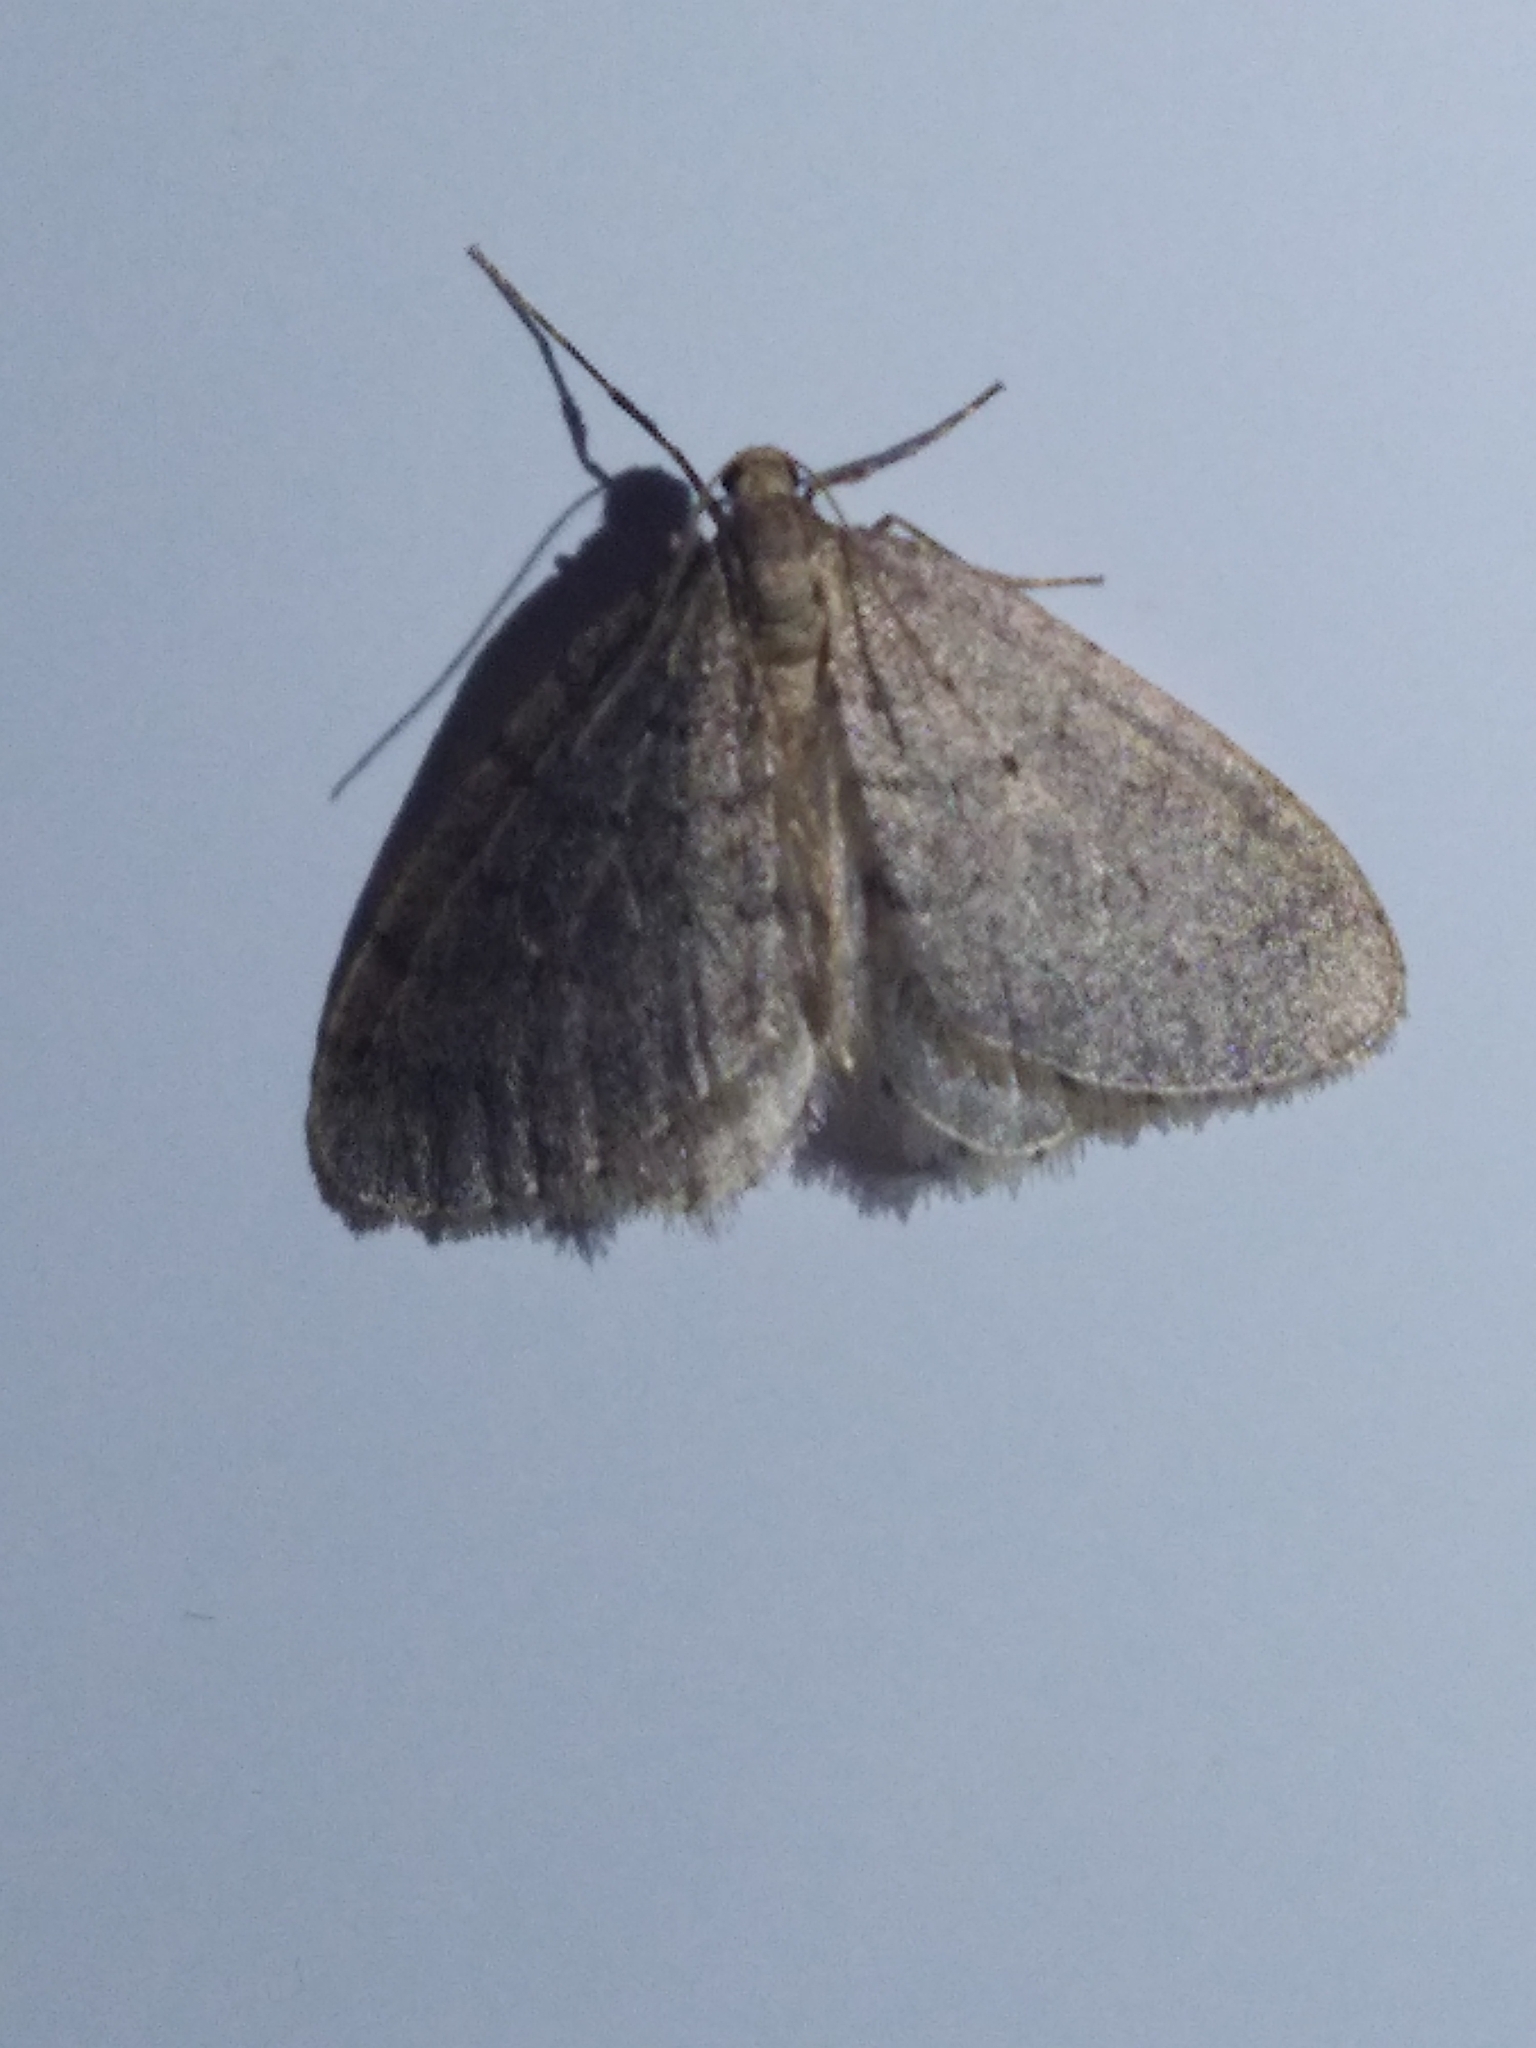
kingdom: Animalia
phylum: Arthropoda
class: Insecta
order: Lepidoptera
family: Geometridae
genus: Operophtera
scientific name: Operophtera brumata
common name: Winter moth
